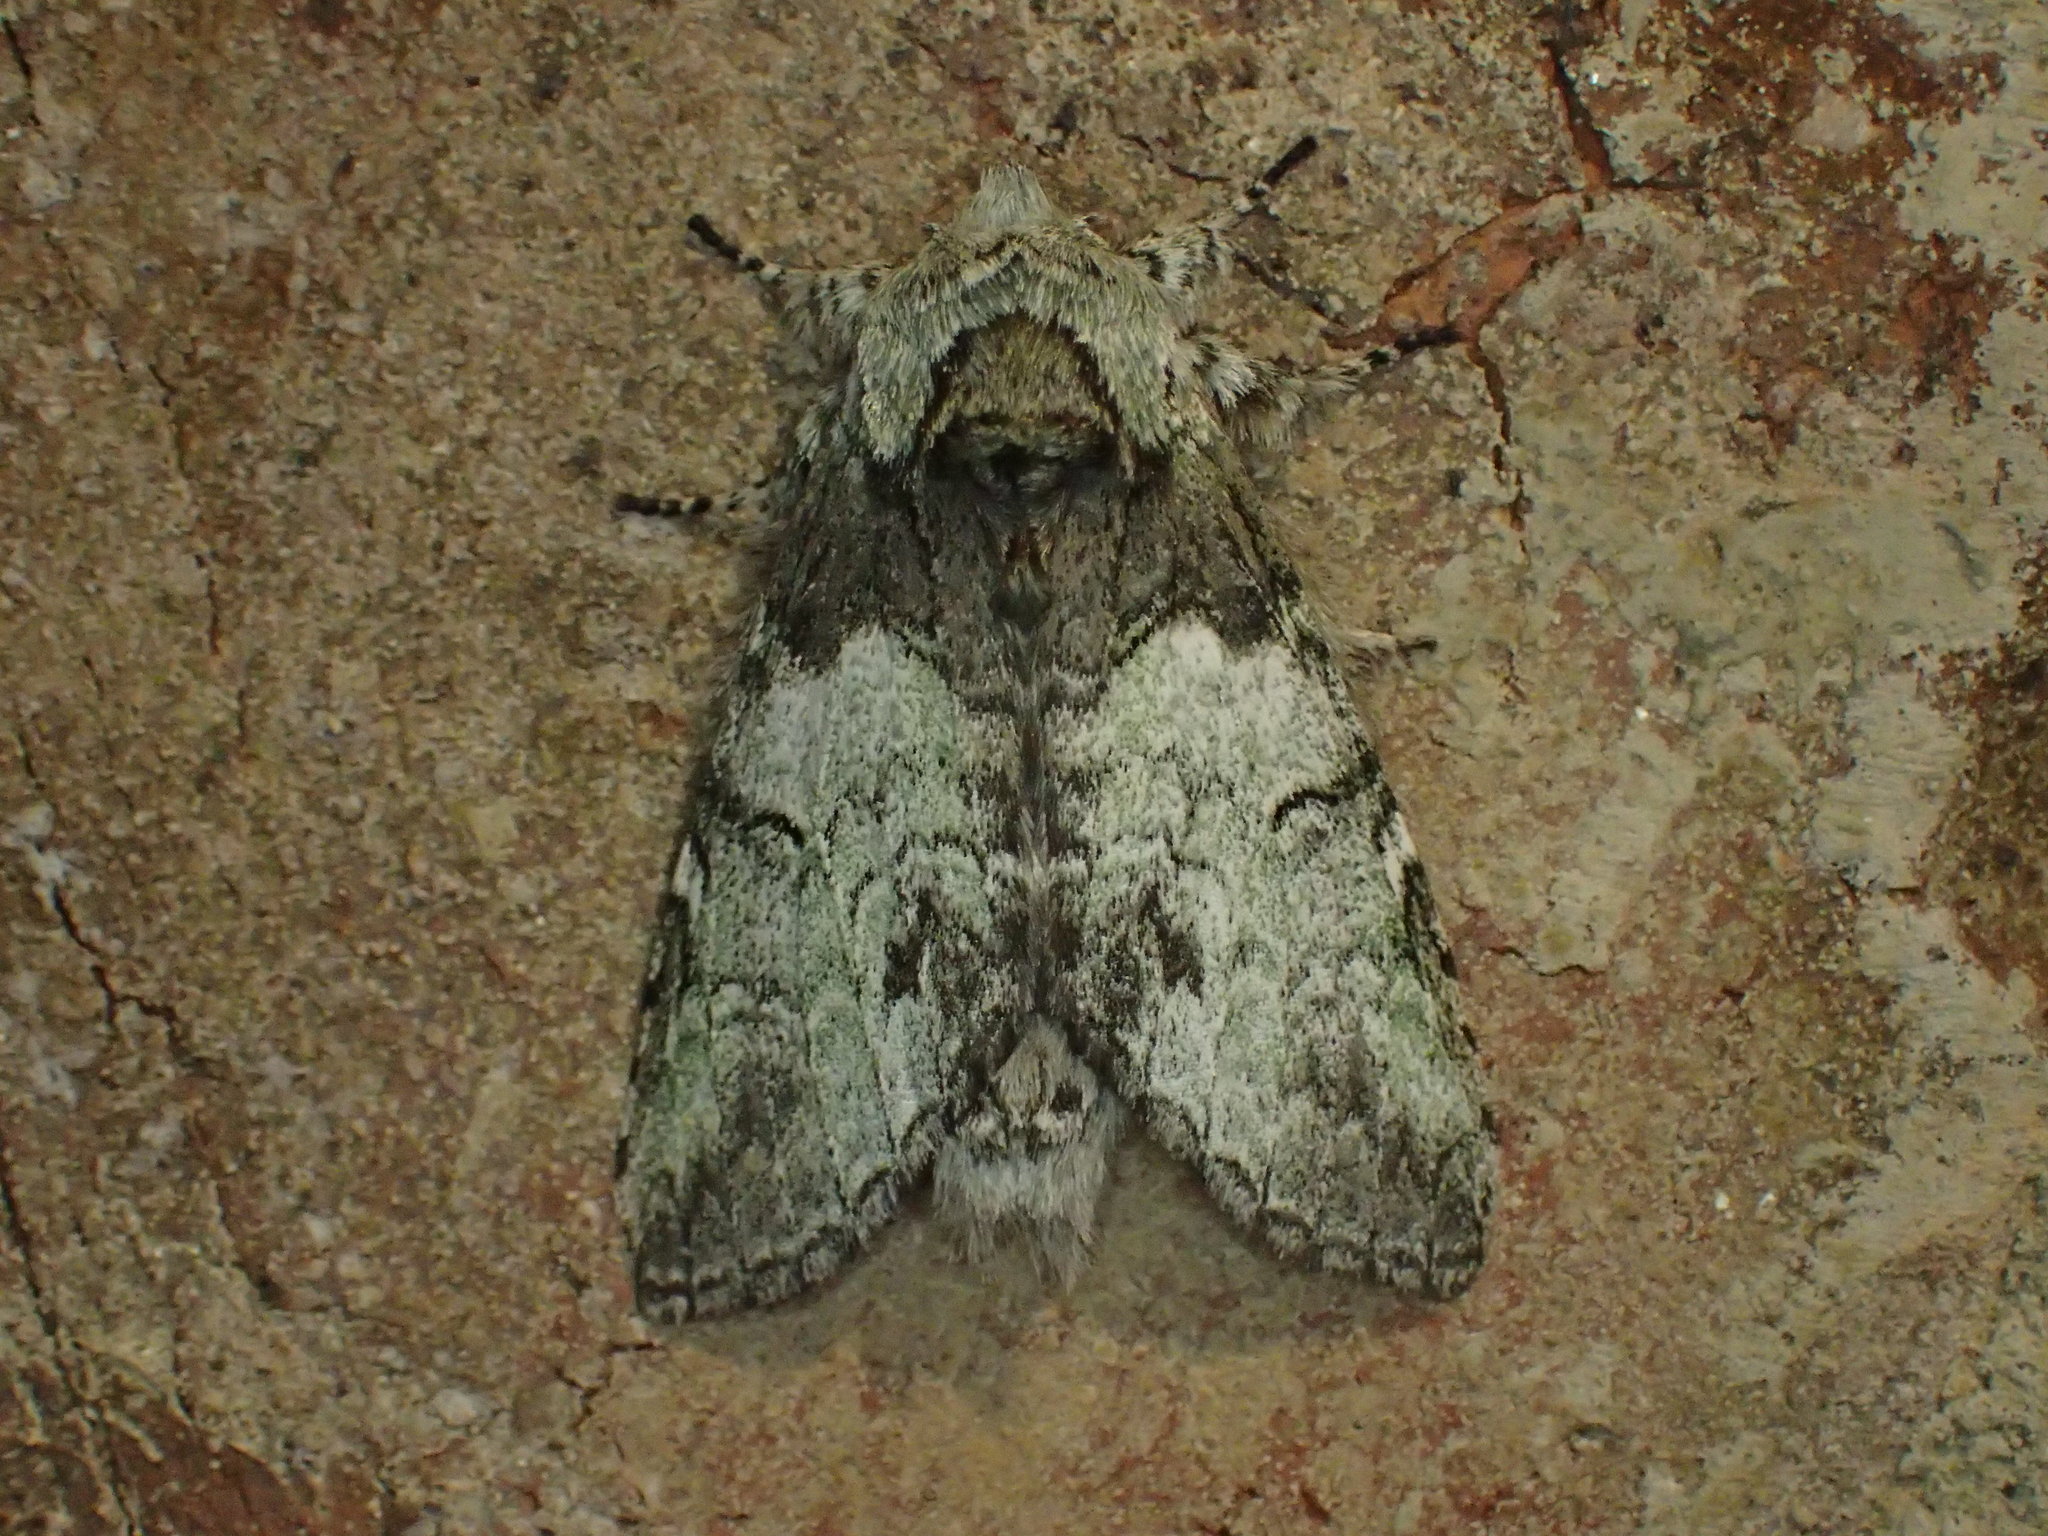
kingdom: Animalia
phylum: Arthropoda
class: Insecta
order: Lepidoptera
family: Notodontidae
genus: Macrurocampa
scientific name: Macrurocampa marthesia
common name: Mottled prominent
